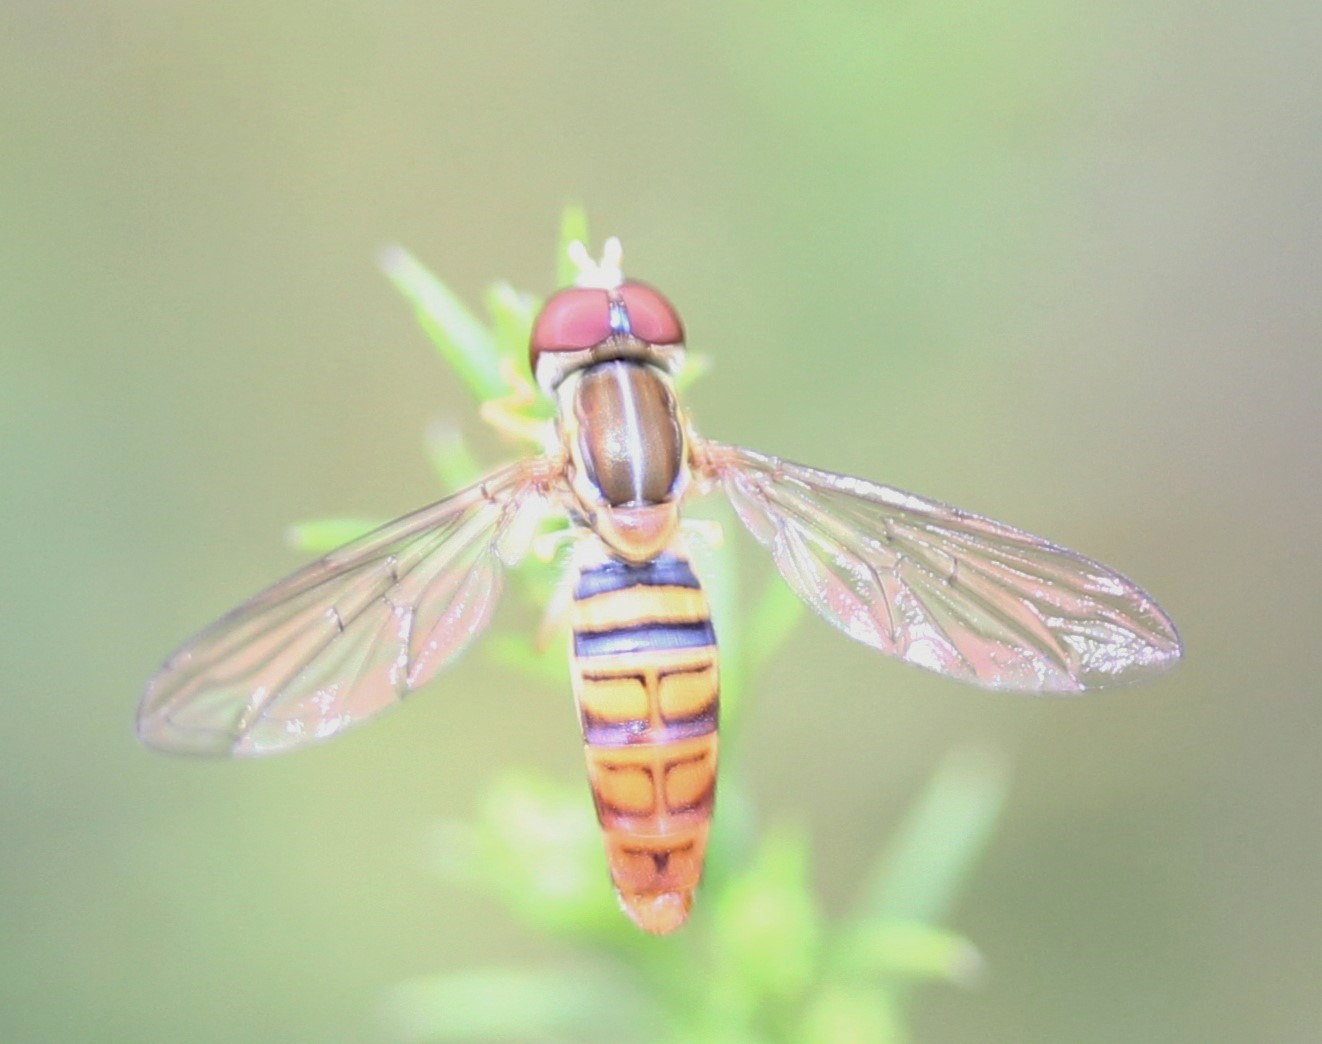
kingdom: Animalia
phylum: Arthropoda
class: Insecta
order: Diptera
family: Syrphidae
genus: Toxomerus
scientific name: Toxomerus politus
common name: Maize calligrapher
